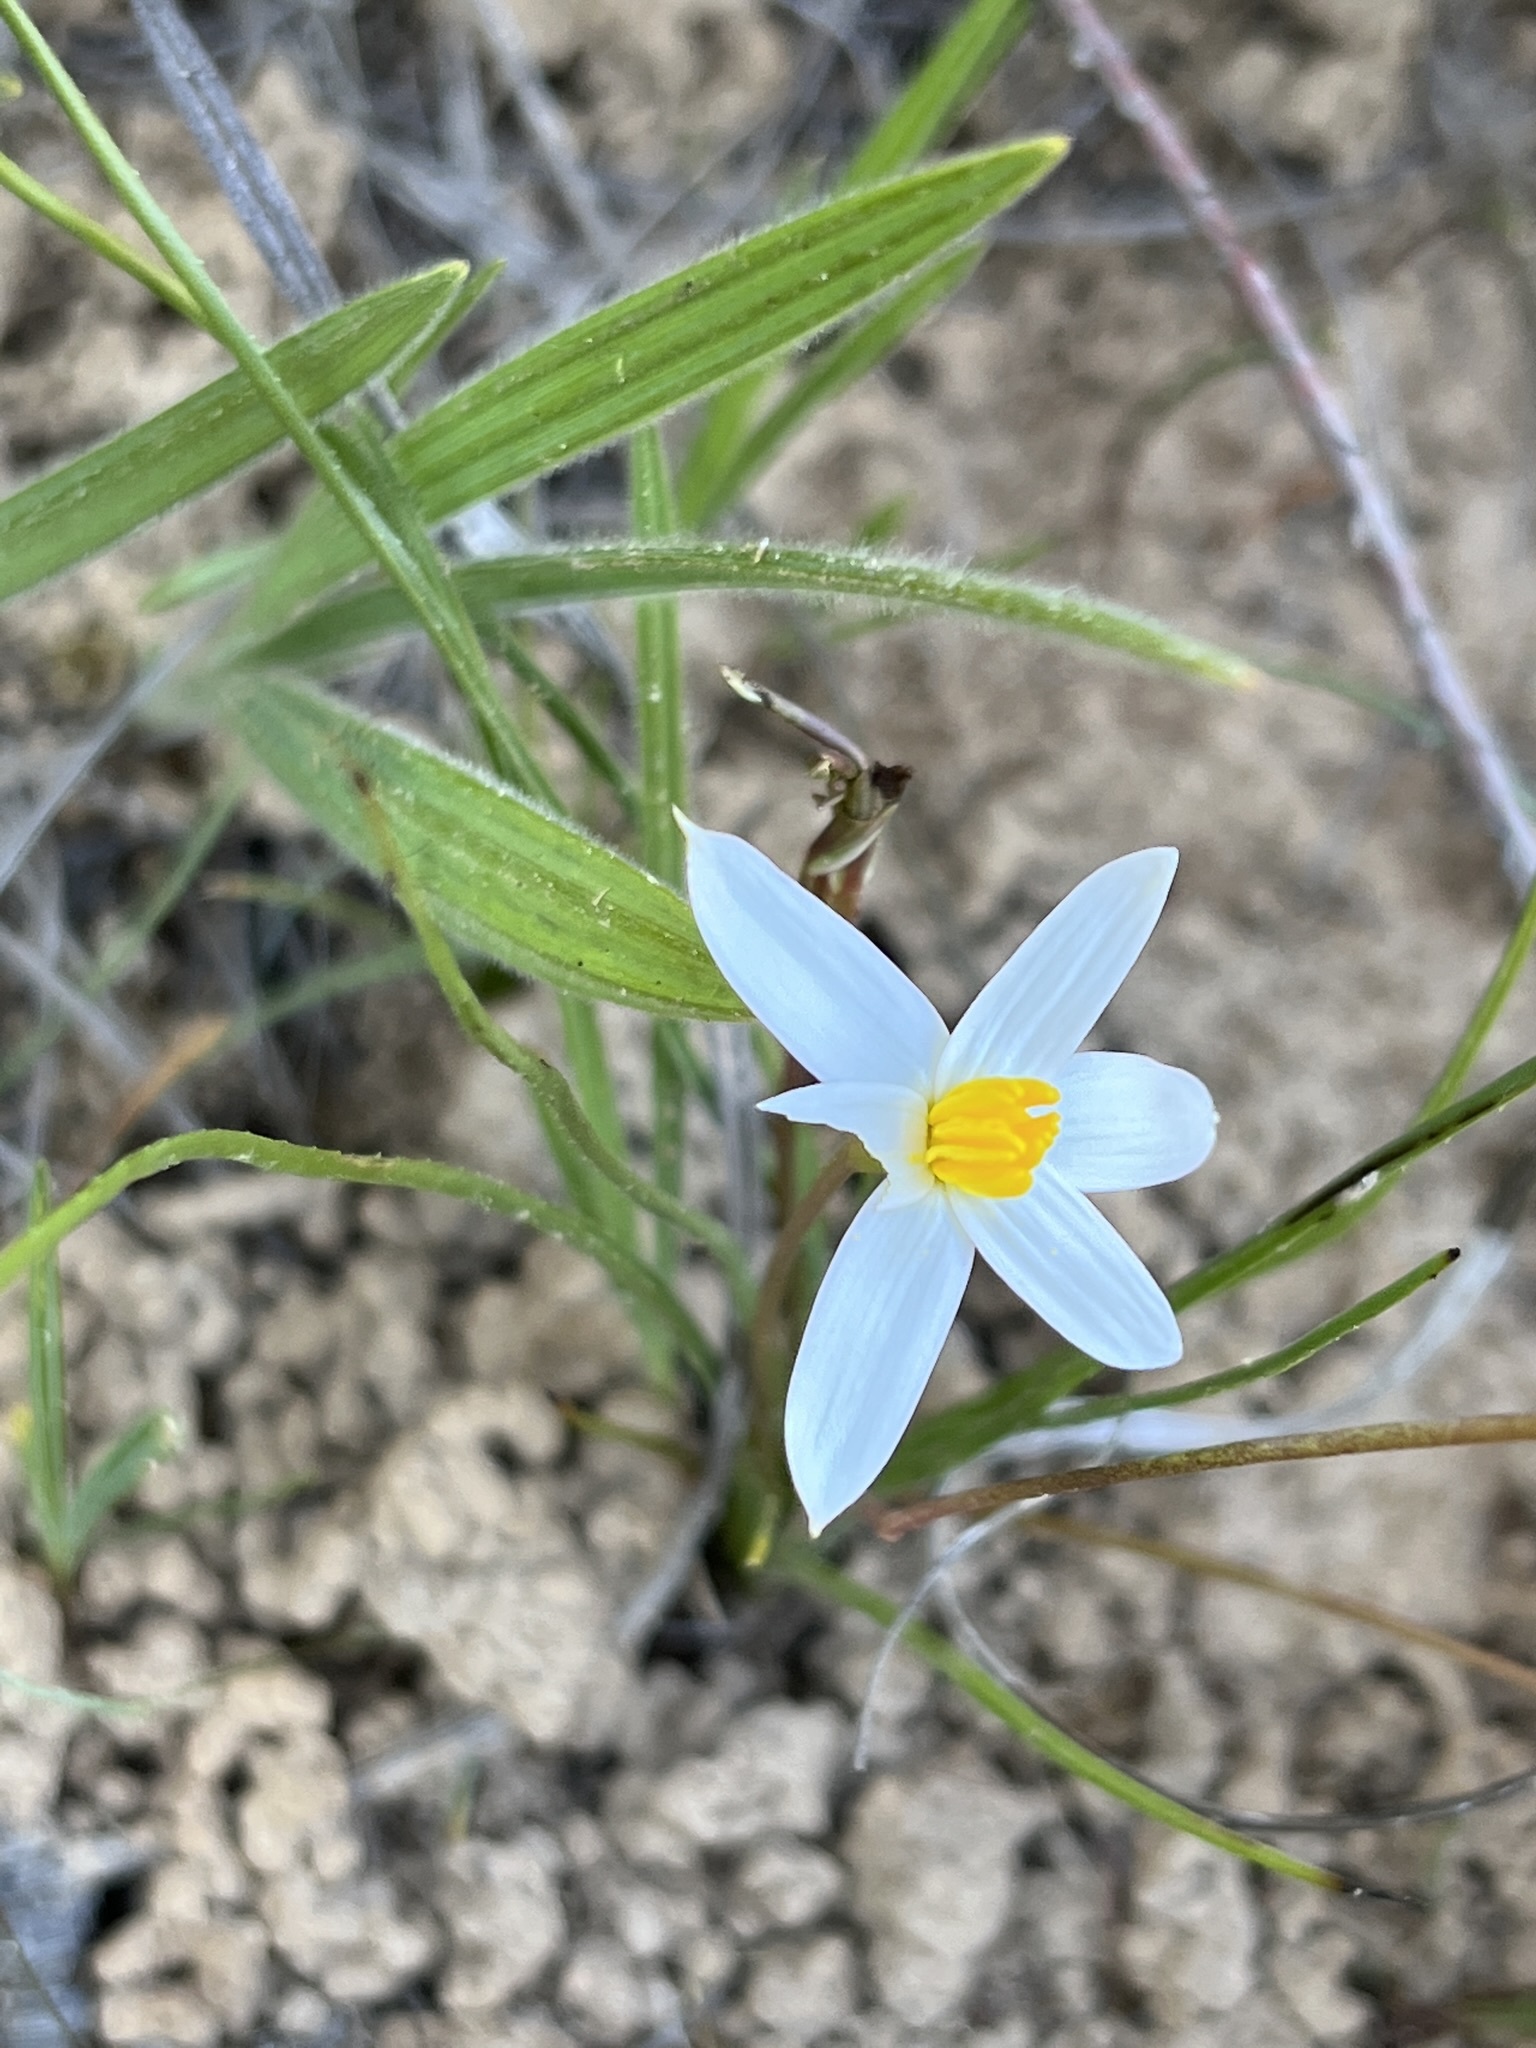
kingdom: Plantae
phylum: Tracheophyta
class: Liliopsida
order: Asparagales
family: Hypoxidaceae
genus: Pauridia
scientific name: Pauridia serrata
